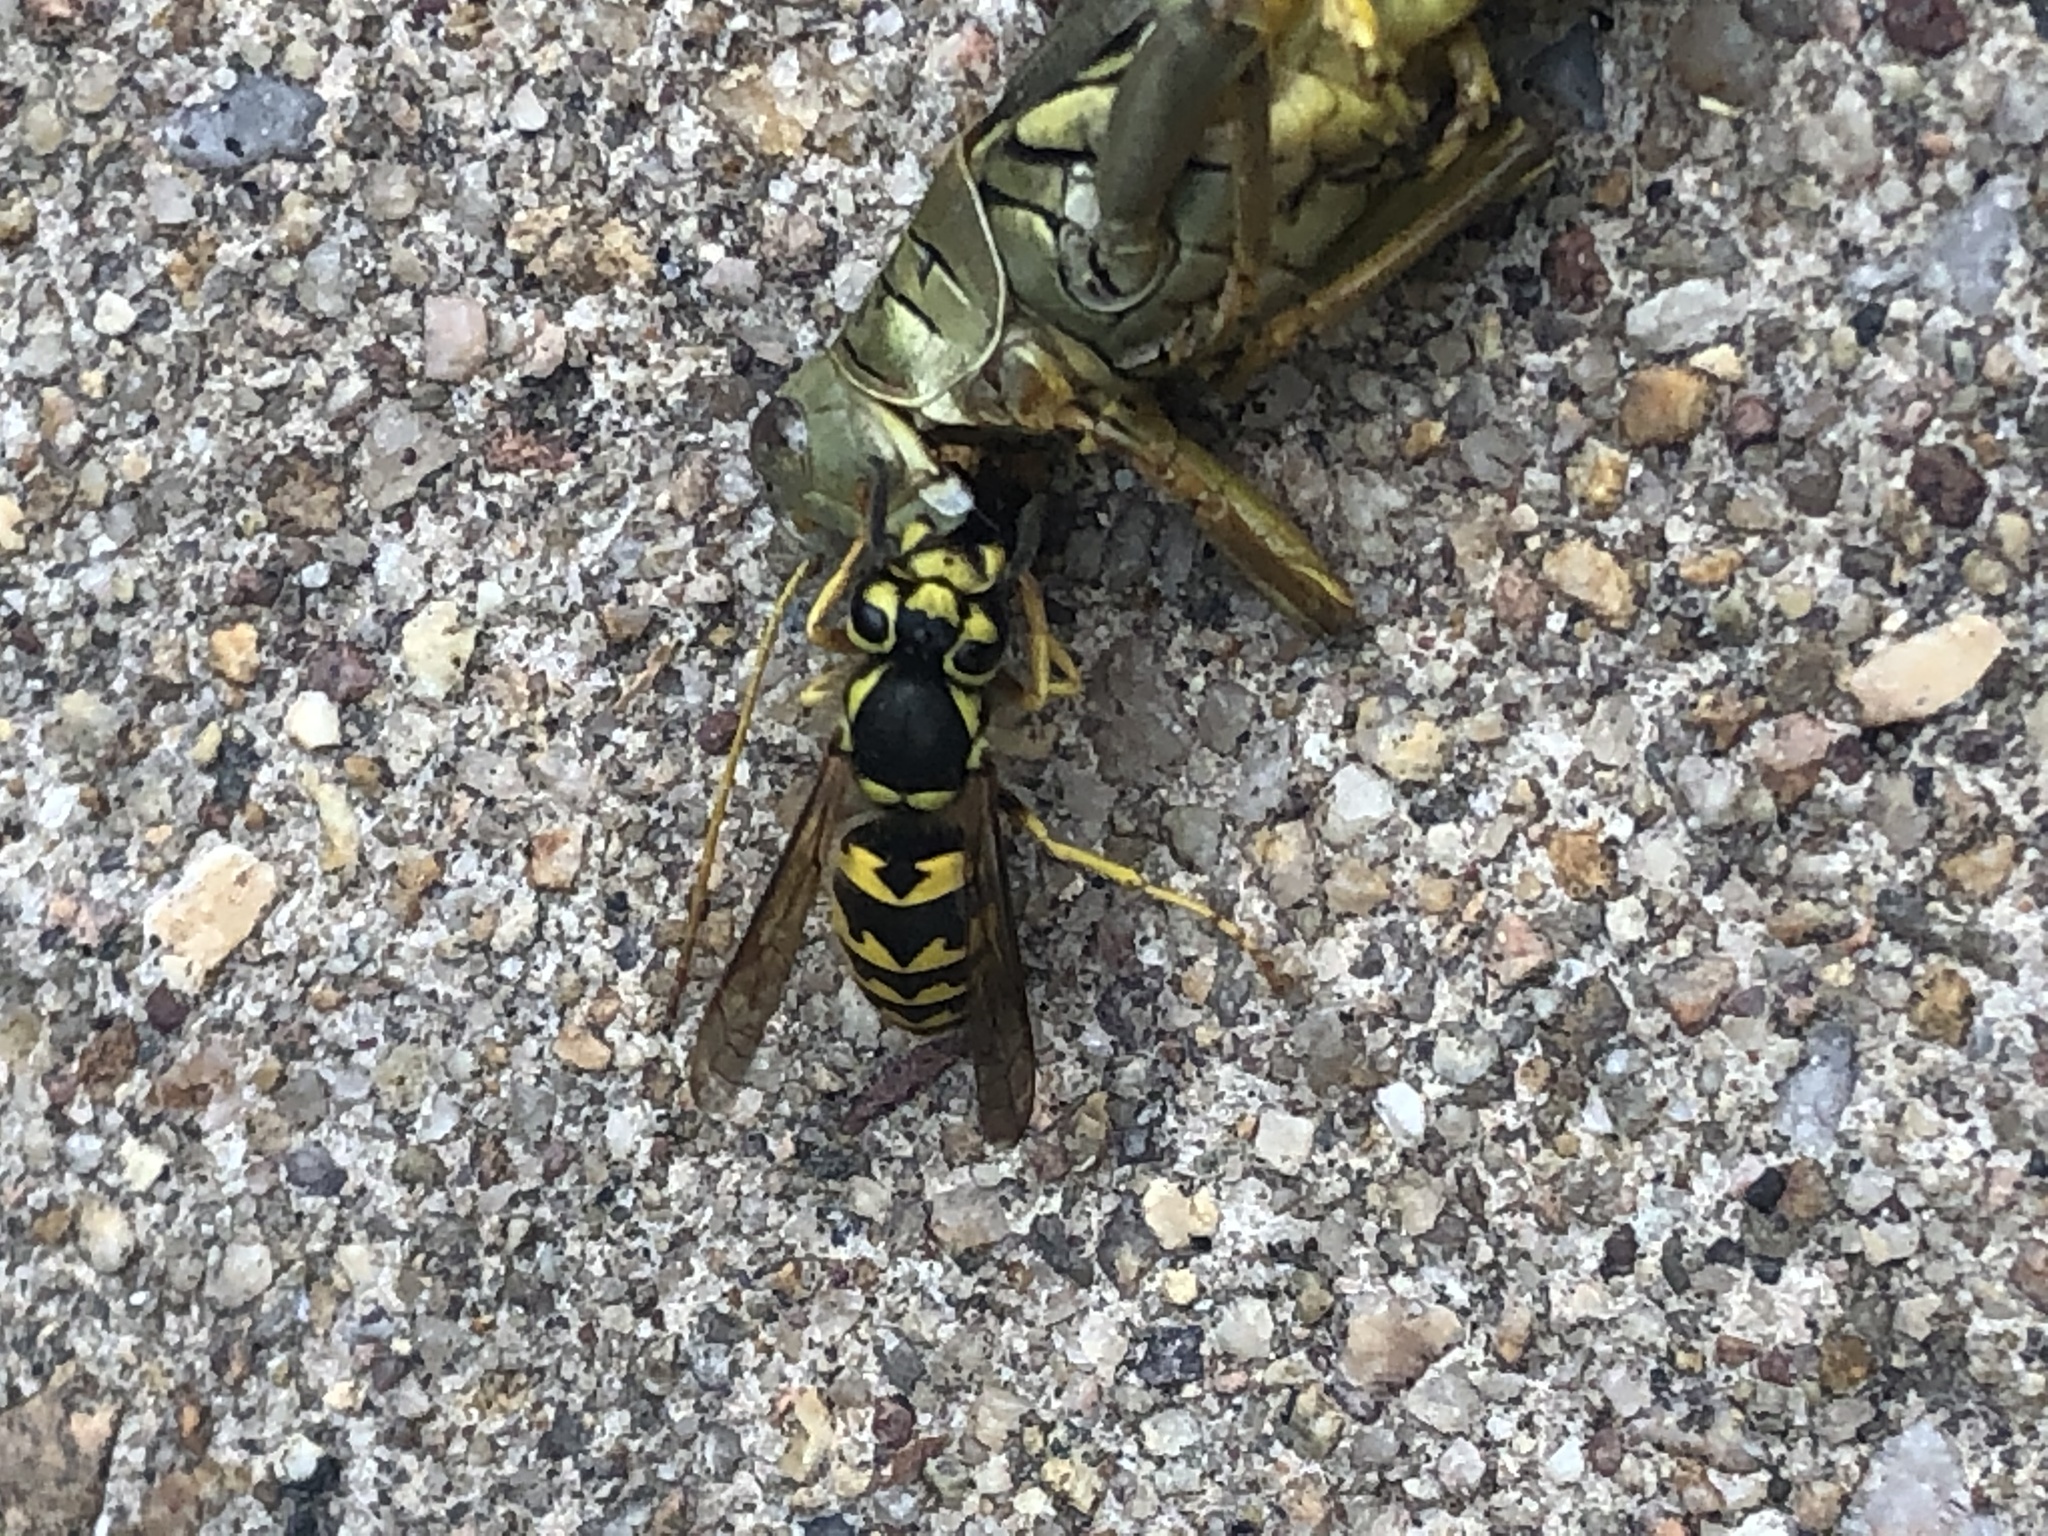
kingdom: Animalia
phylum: Arthropoda
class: Insecta
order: Hymenoptera
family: Vespidae
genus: Vespula
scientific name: Vespula pensylvanica
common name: Western yellowjacket
